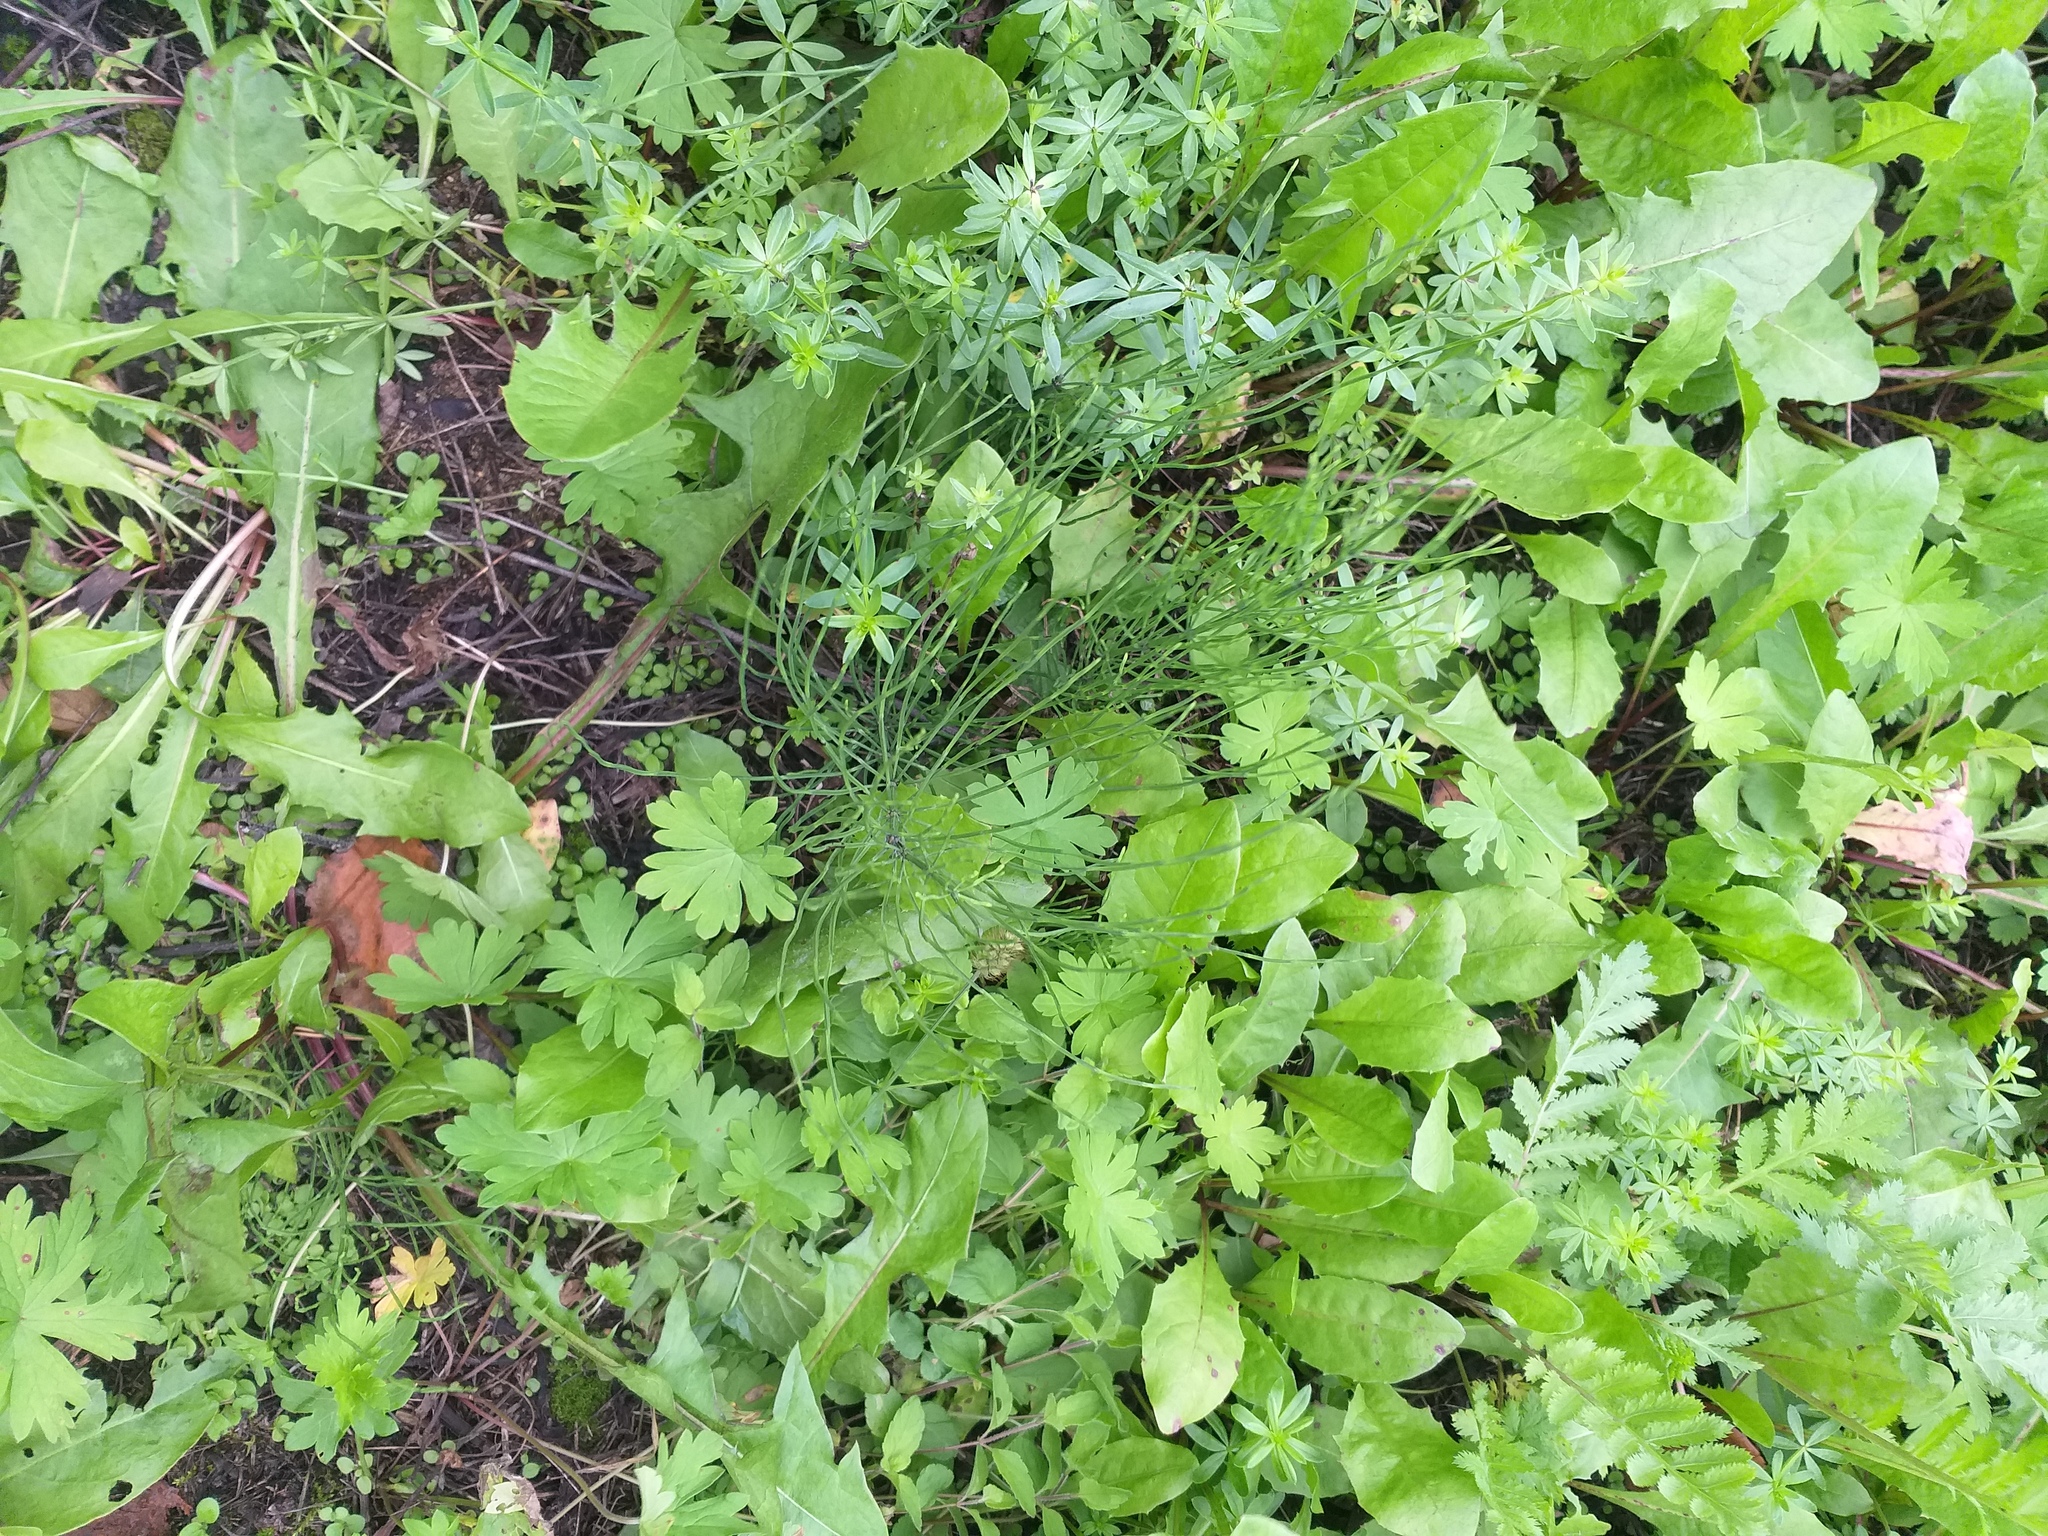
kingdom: Plantae
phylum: Tracheophyta
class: Polypodiopsida
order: Equisetales
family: Equisetaceae
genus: Equisetum
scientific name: Equisetum arvense
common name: Field horsetail
